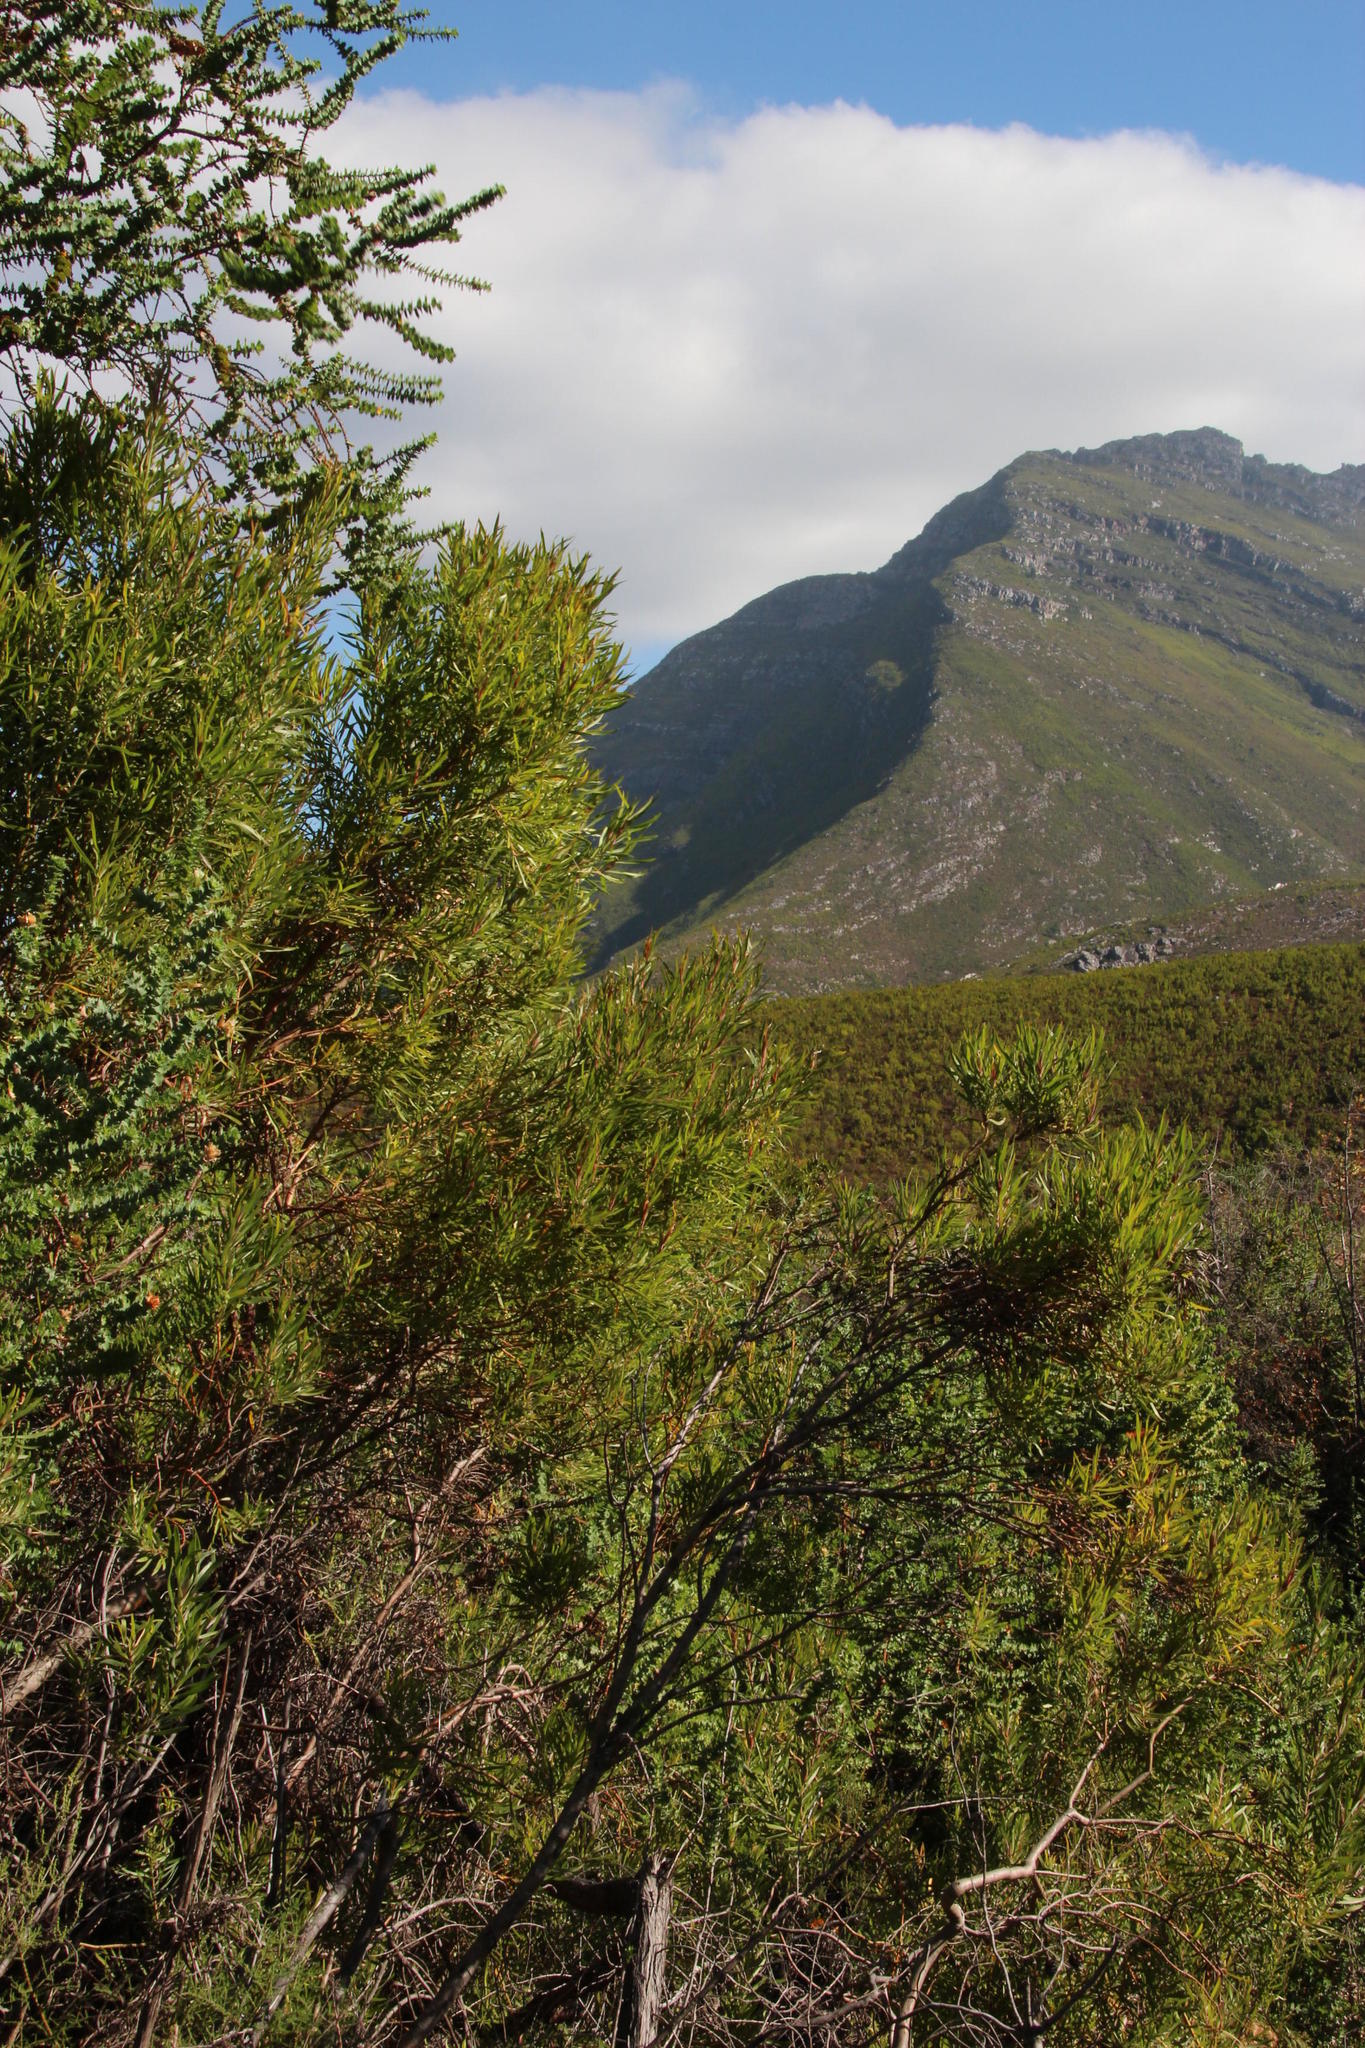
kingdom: Plantae
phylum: Tracheophyta
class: Magnoliopsida
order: Proteales
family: Proteaceae
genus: Leucadendron
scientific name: Leucadendron eucalyptifolium
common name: Gum-leaved conebush
